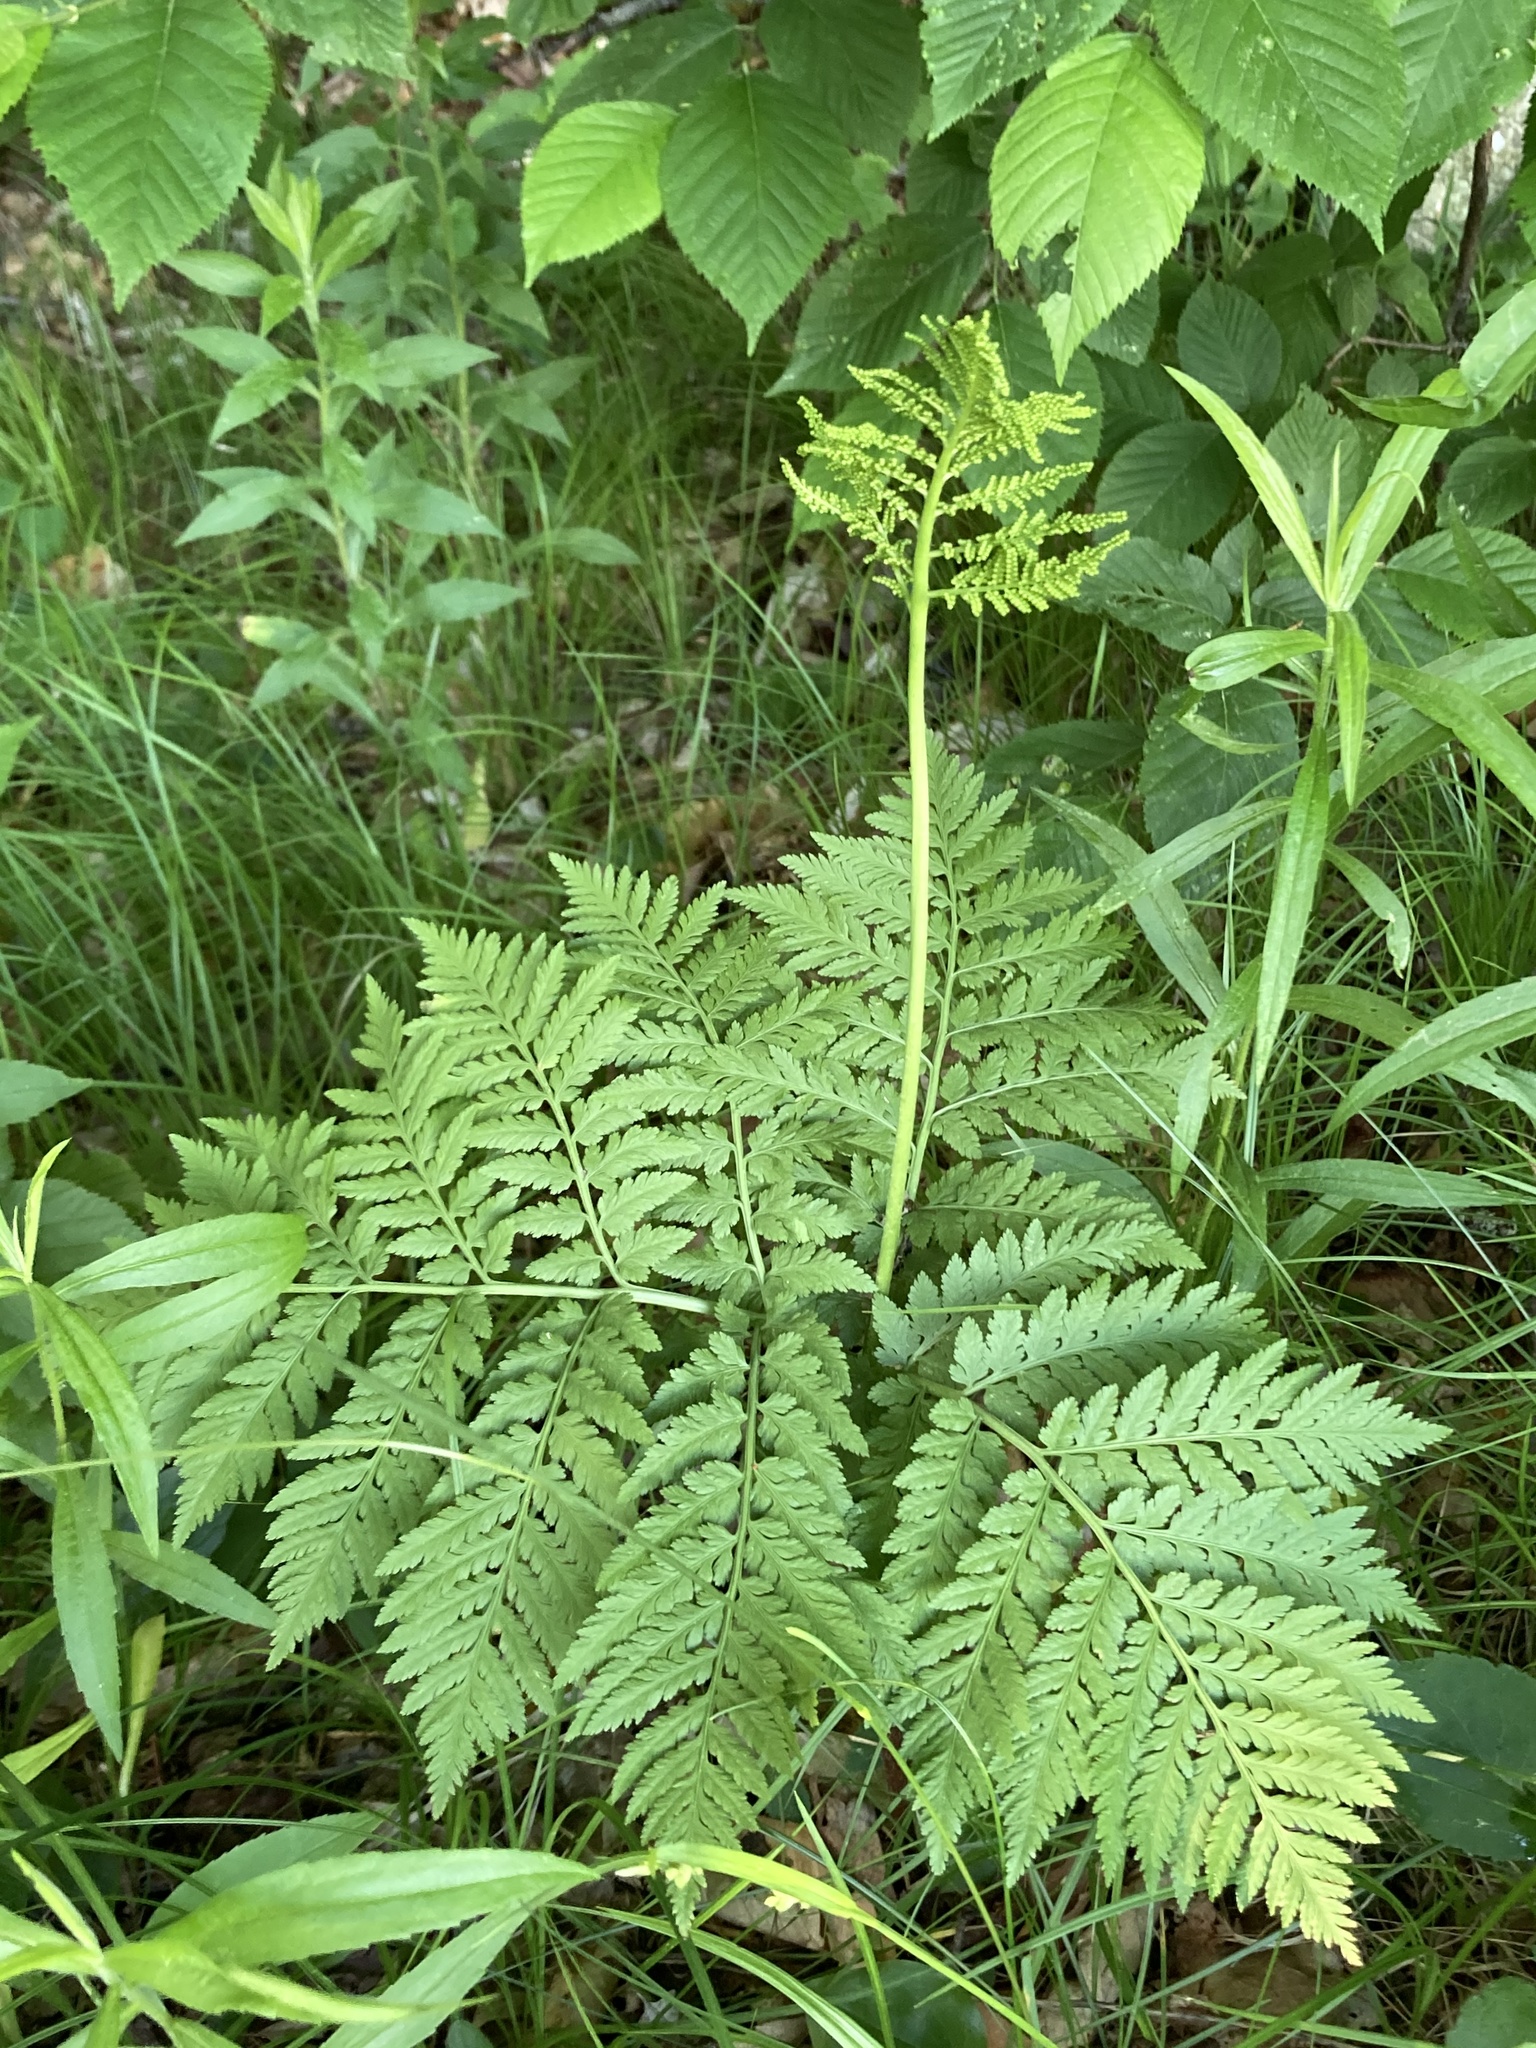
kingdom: Plantae
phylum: Tracheophyta
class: Polypodiopsida
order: Ophioglossales
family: Ophioglossaceae
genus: Botrypus
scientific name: Botrypus virginianus
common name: Common grapefern
